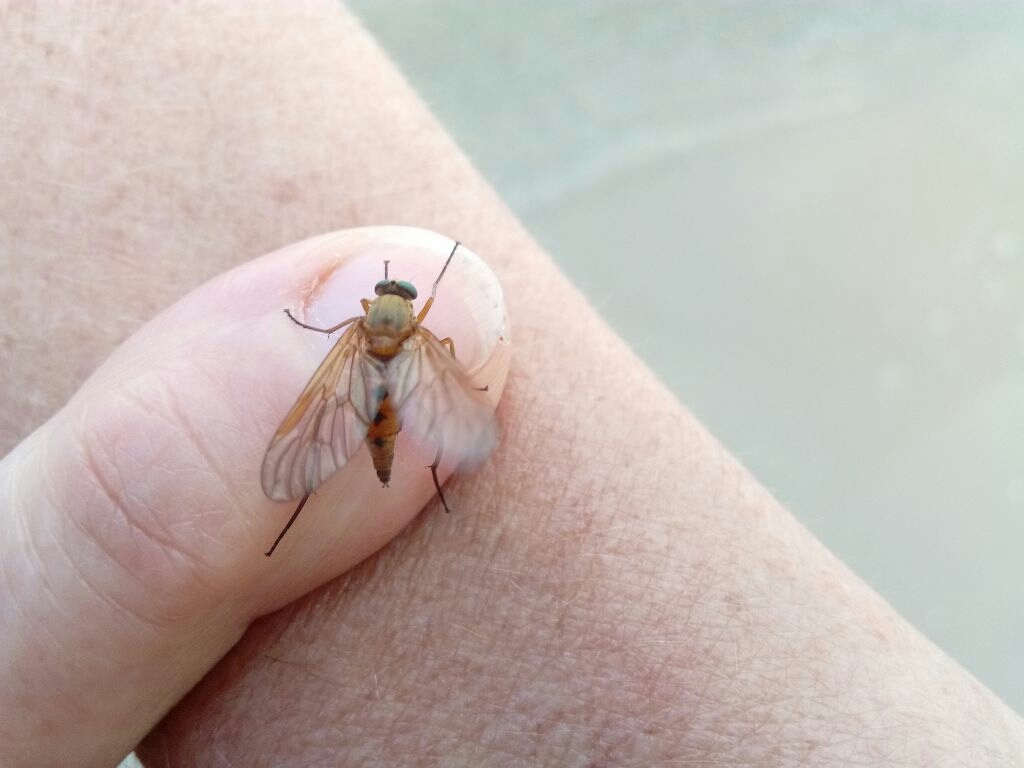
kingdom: Animalia
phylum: Arthropoda
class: Insecta
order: Diptera
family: Rhagionidae
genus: Rhagio
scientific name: Rhagio tringaria
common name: Marsh snipefly
